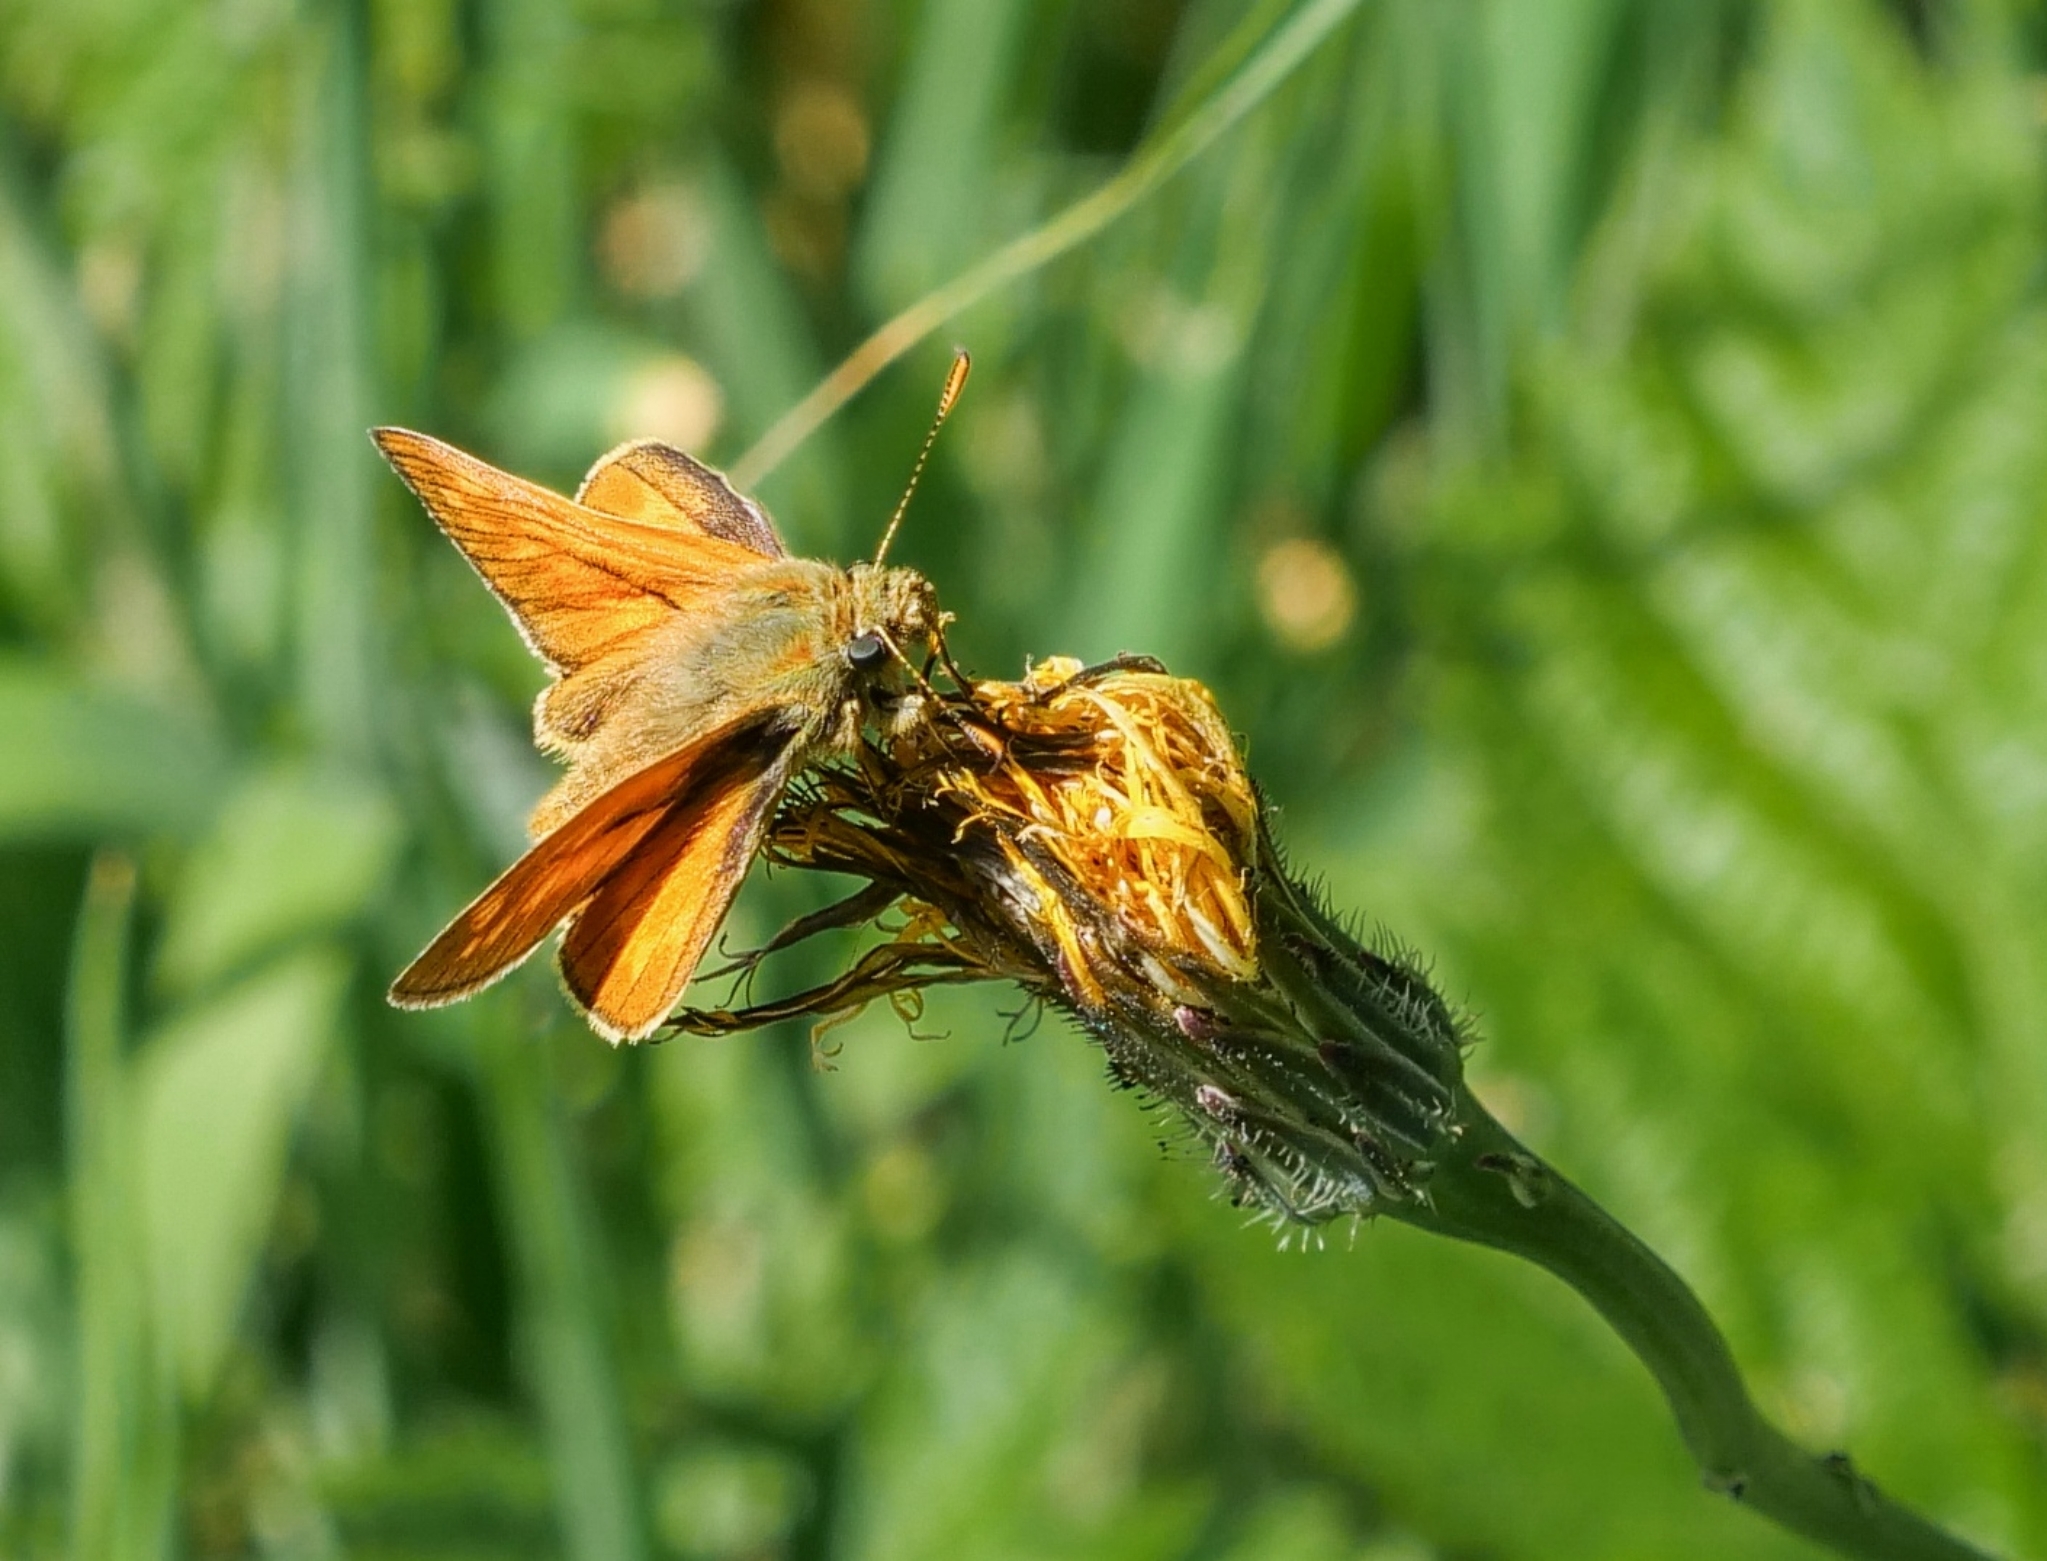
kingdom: Animalia
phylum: Arthropoda
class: Insecta
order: Lepidoptera
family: Hesperiidae
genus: Ochlodes
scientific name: Ochlodes venata
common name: Large skipper
